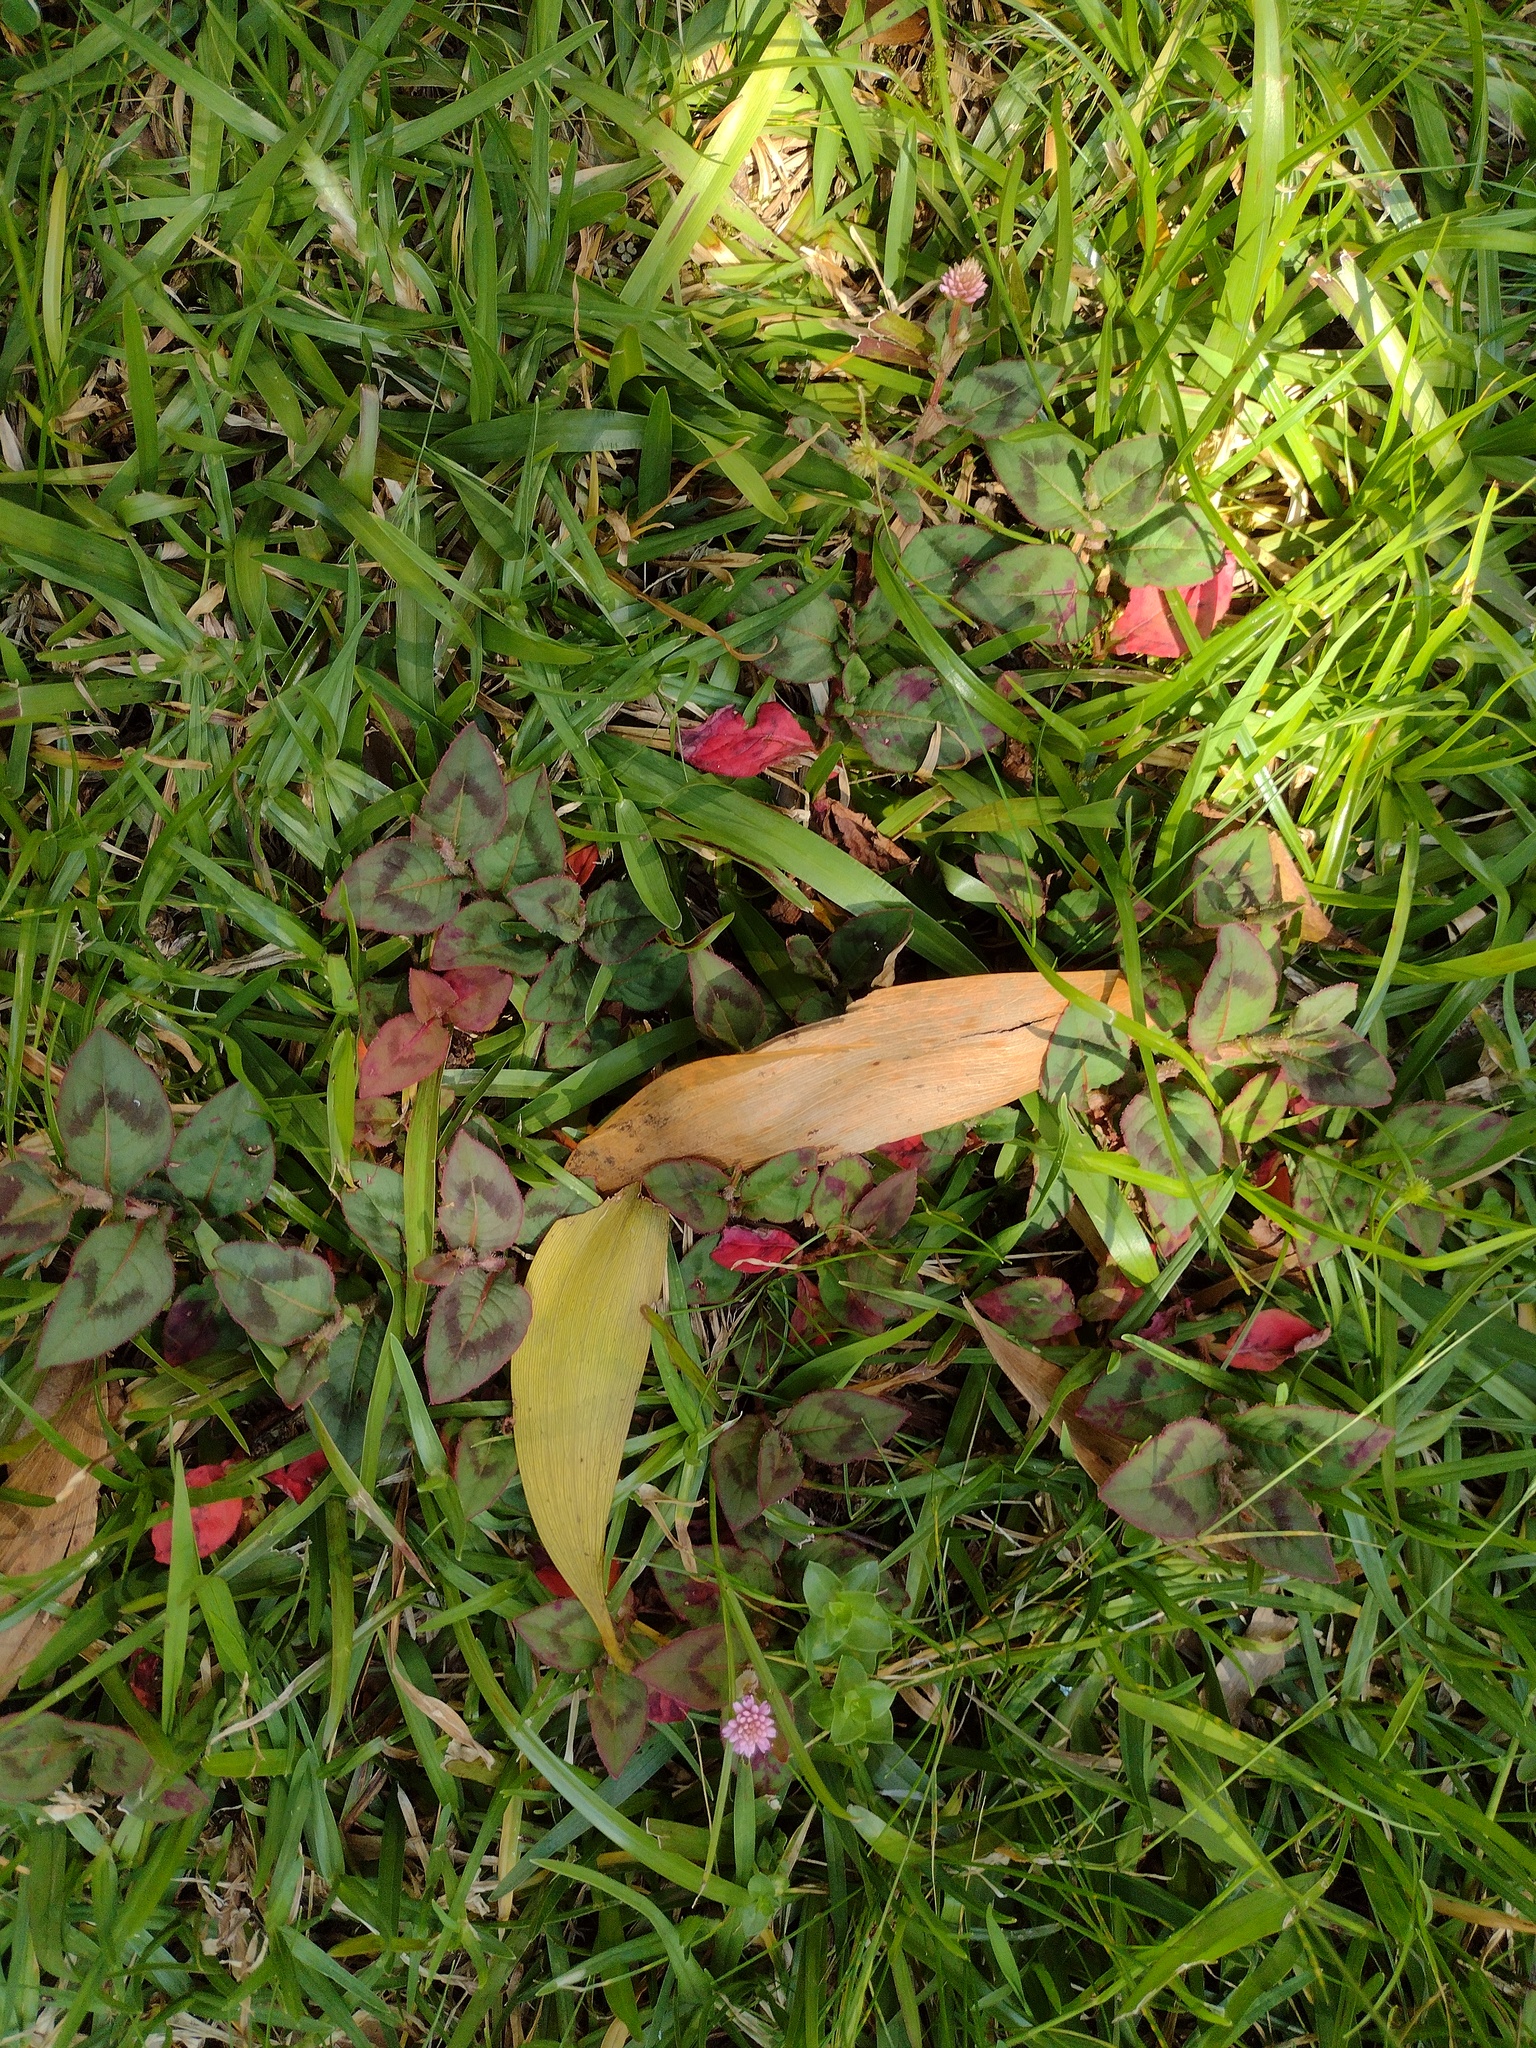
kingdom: Plantae
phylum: Tracheophyta
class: Magnoliopsida
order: Caryophyllales
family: Polygonaceae
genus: Persicaria
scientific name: Persicaria capitata
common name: Pinkhead smartweed
